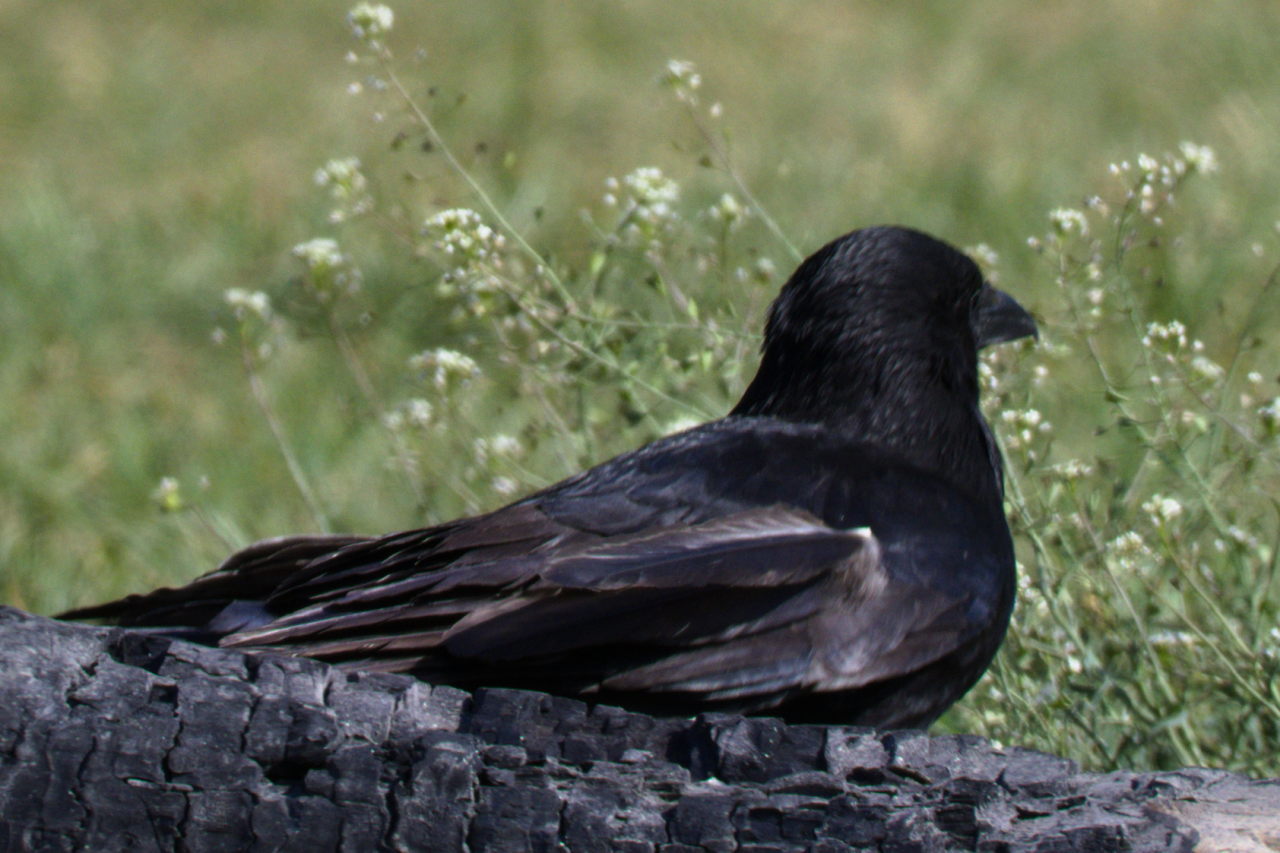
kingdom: Animalia
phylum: Chordata
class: Aves
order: Passeriformes
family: Corvidae
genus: Corvus
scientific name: Corvus corone
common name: Carrion crow
